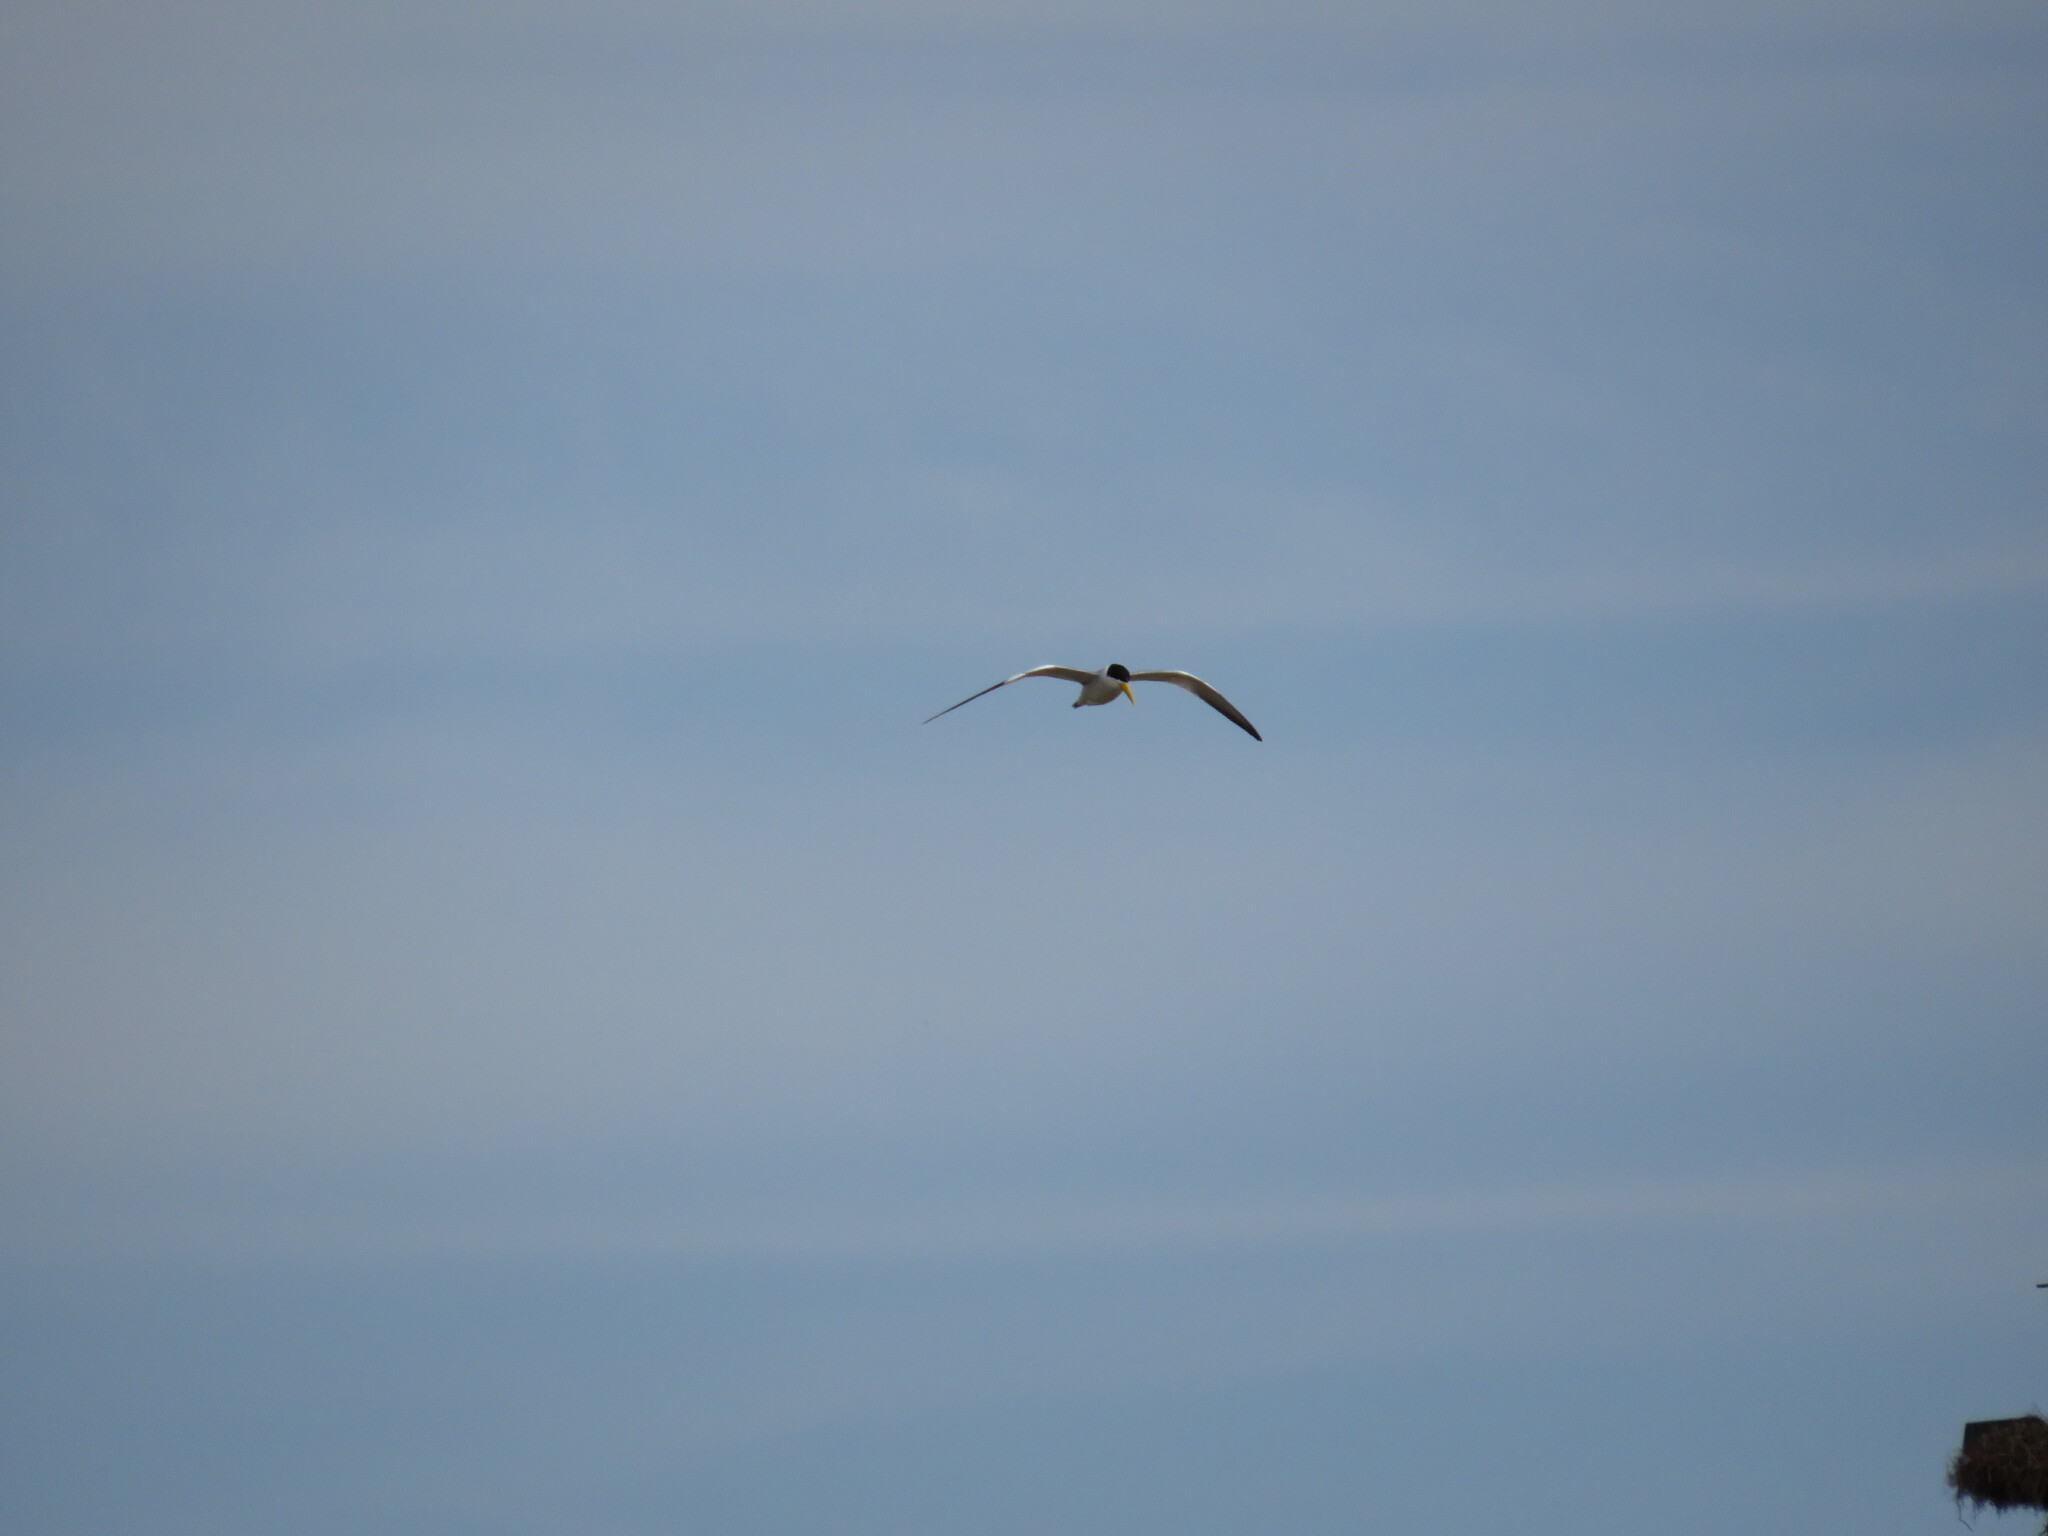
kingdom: Animalia
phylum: Chordata
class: Aves
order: Charadriiformes
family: Laridae
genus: Phaetusa
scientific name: Phaetusa simplex
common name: Large-billed tern
